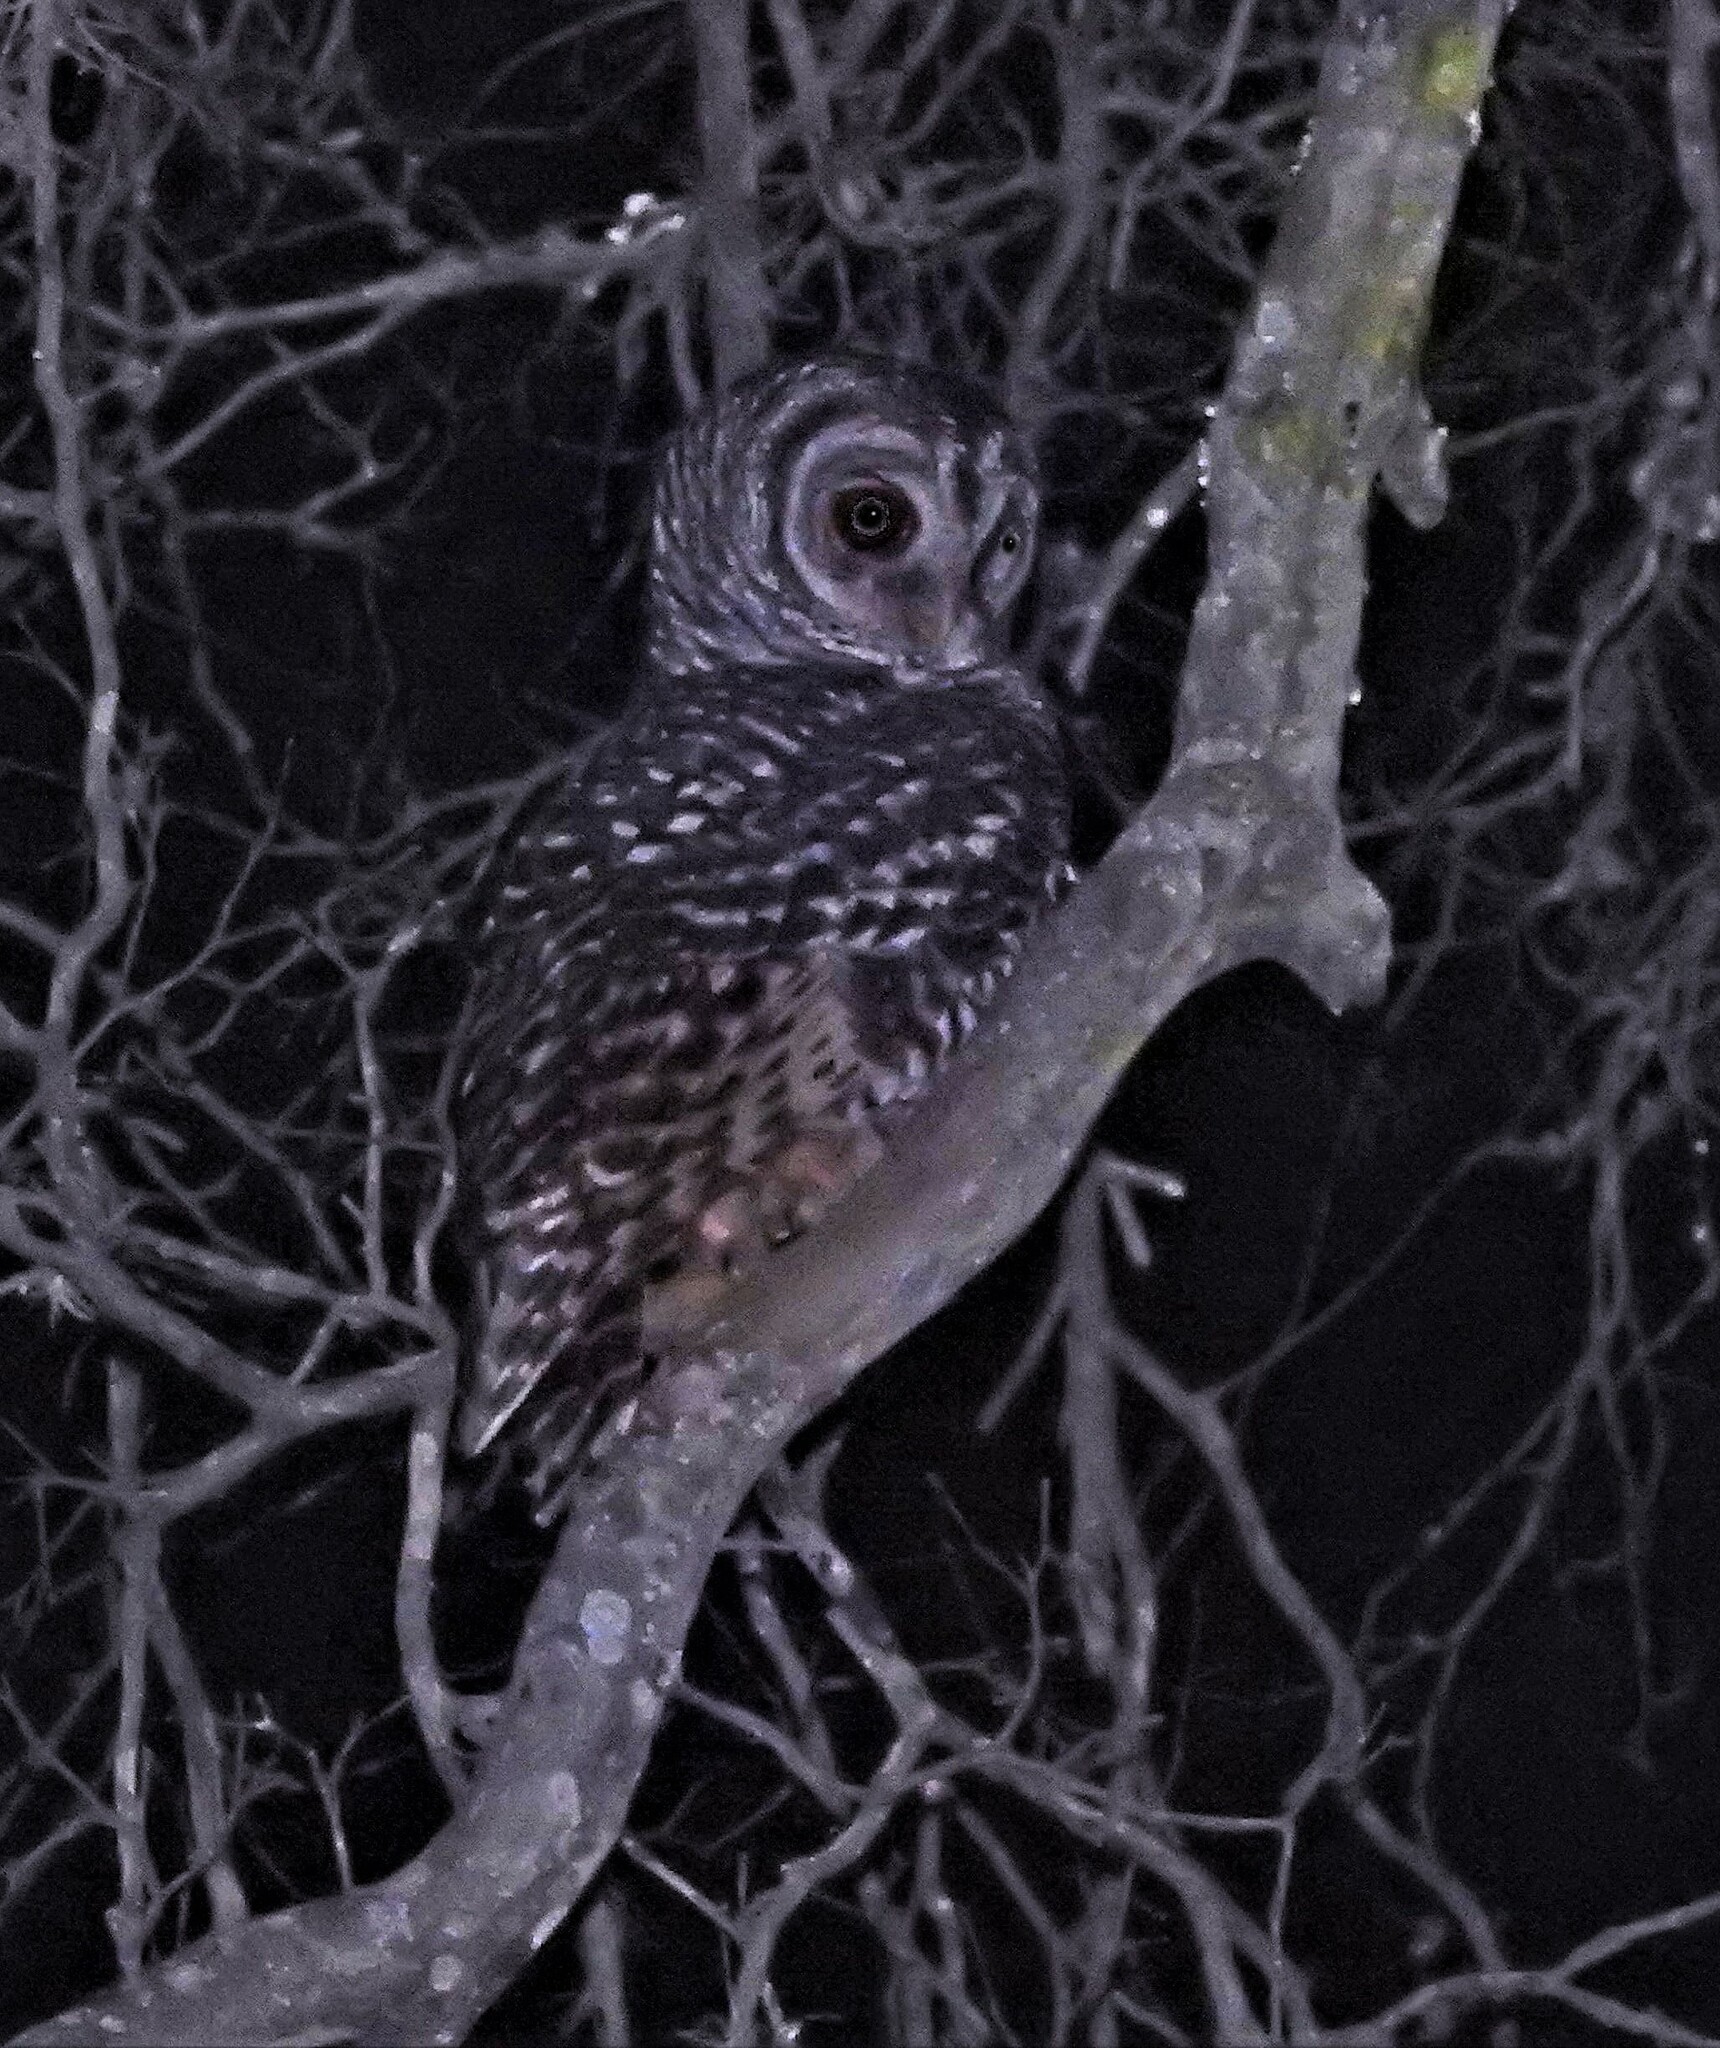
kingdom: Animalia
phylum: Chordata
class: Aves
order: Strigiformes
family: Strigidae
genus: Strix
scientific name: Strix chacoensis
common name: Chaco owl
